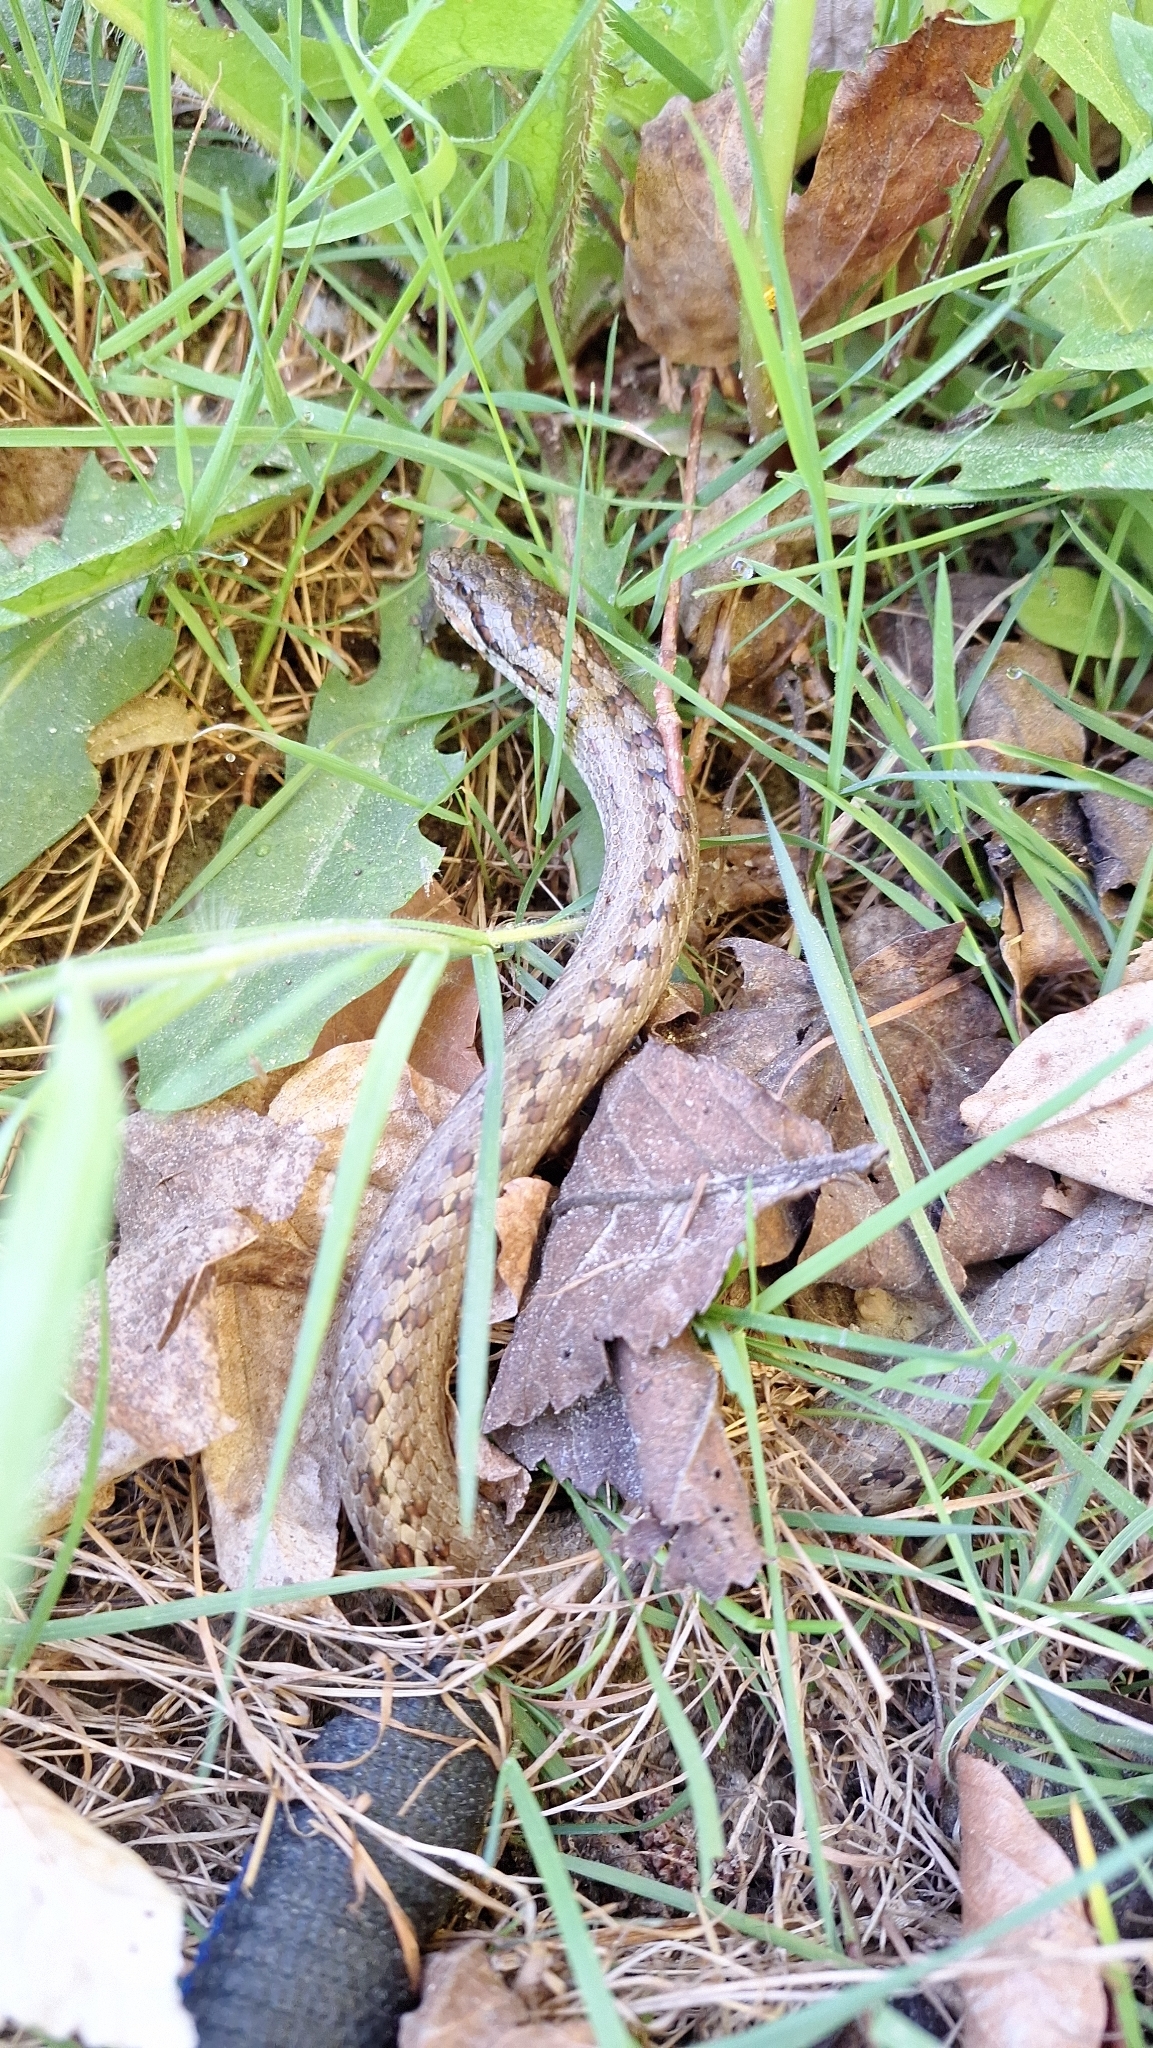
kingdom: Animalia
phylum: Chordata
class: Squamata
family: Colubridae
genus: Coronella
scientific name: Coronella austriaca
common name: Smooth snake
